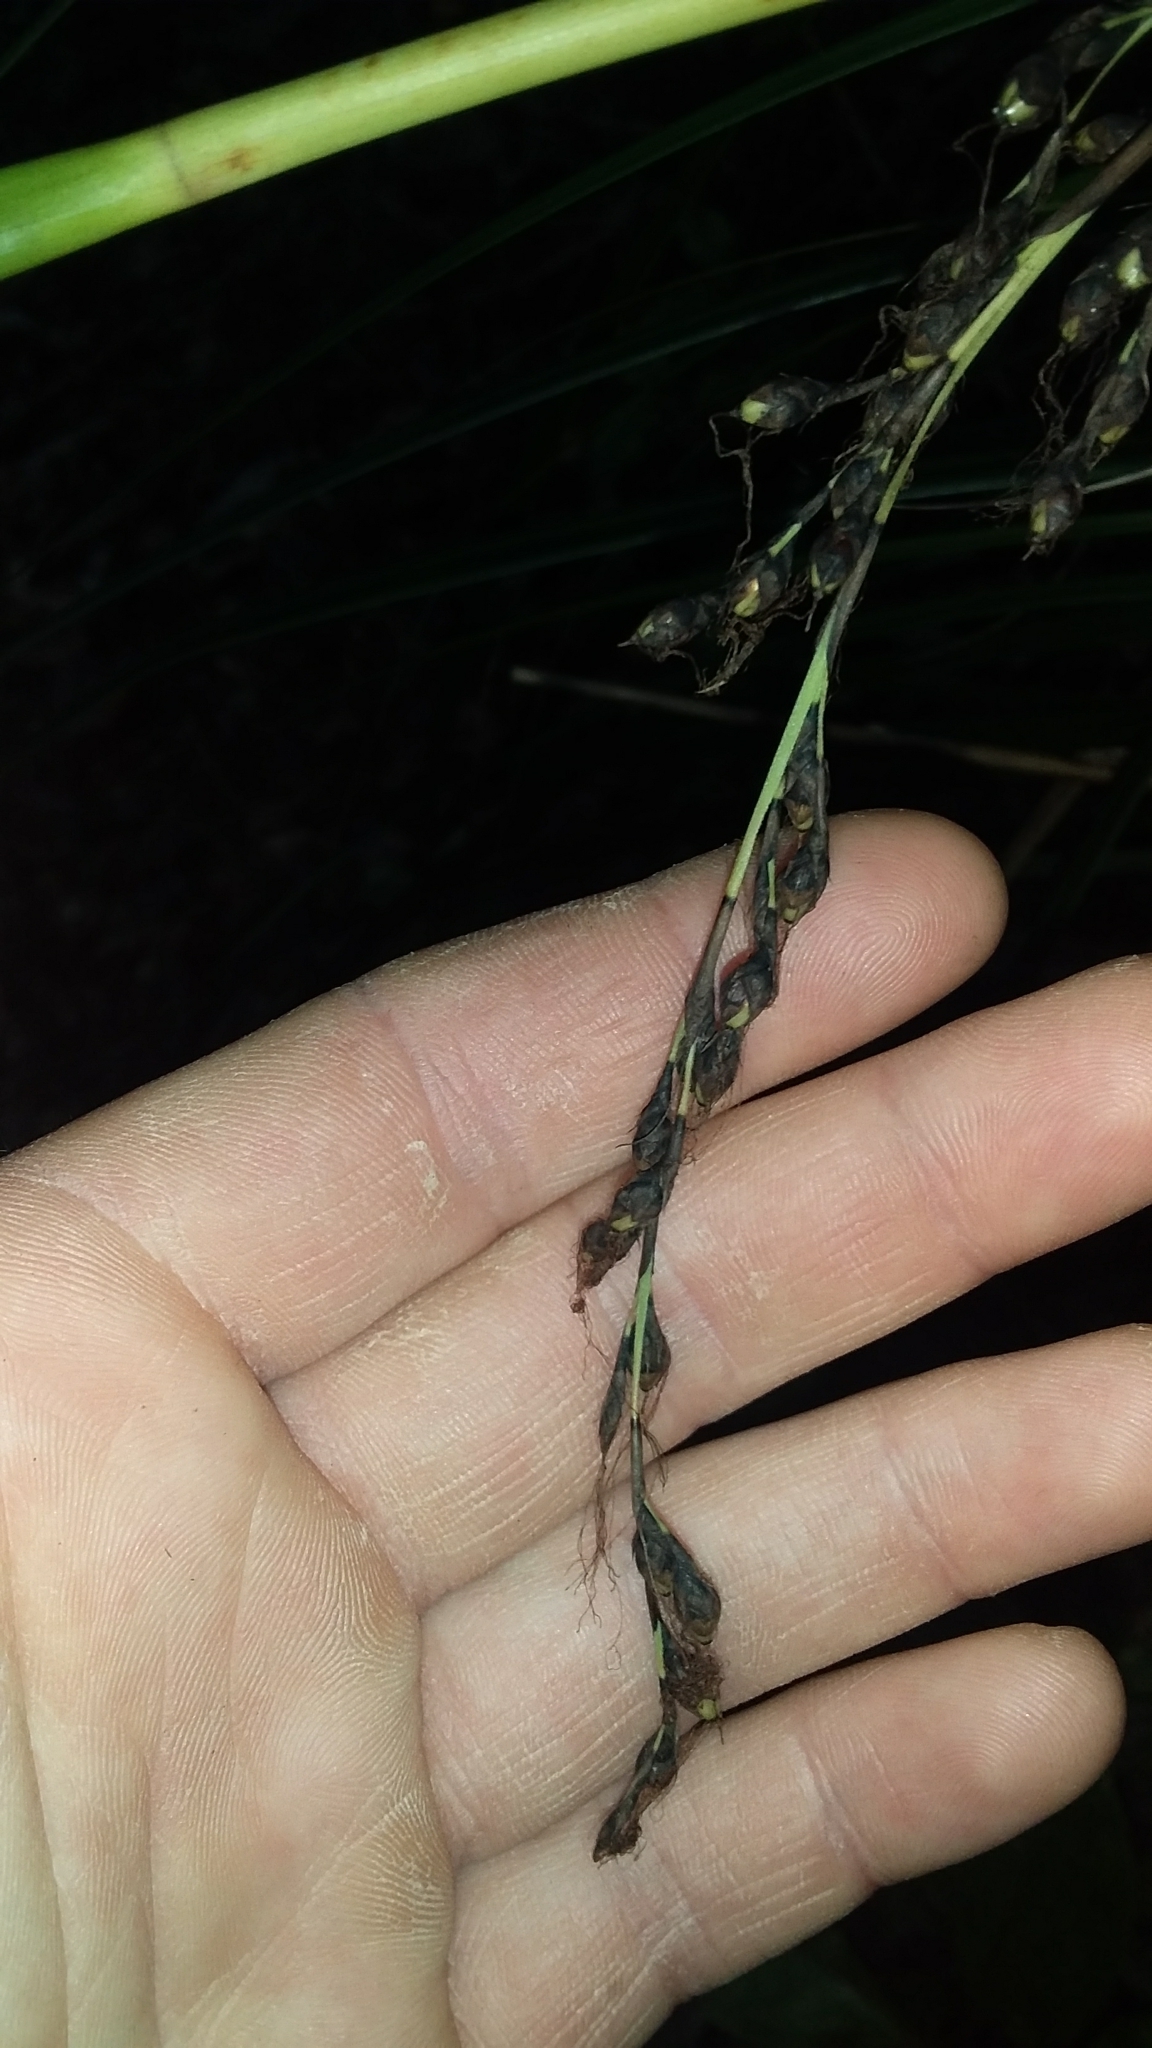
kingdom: Plantae
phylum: Tracheophyta
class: Liliopsida
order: Poales
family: Cyperaceae
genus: Gahnia
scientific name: Gahnia pauciflora
